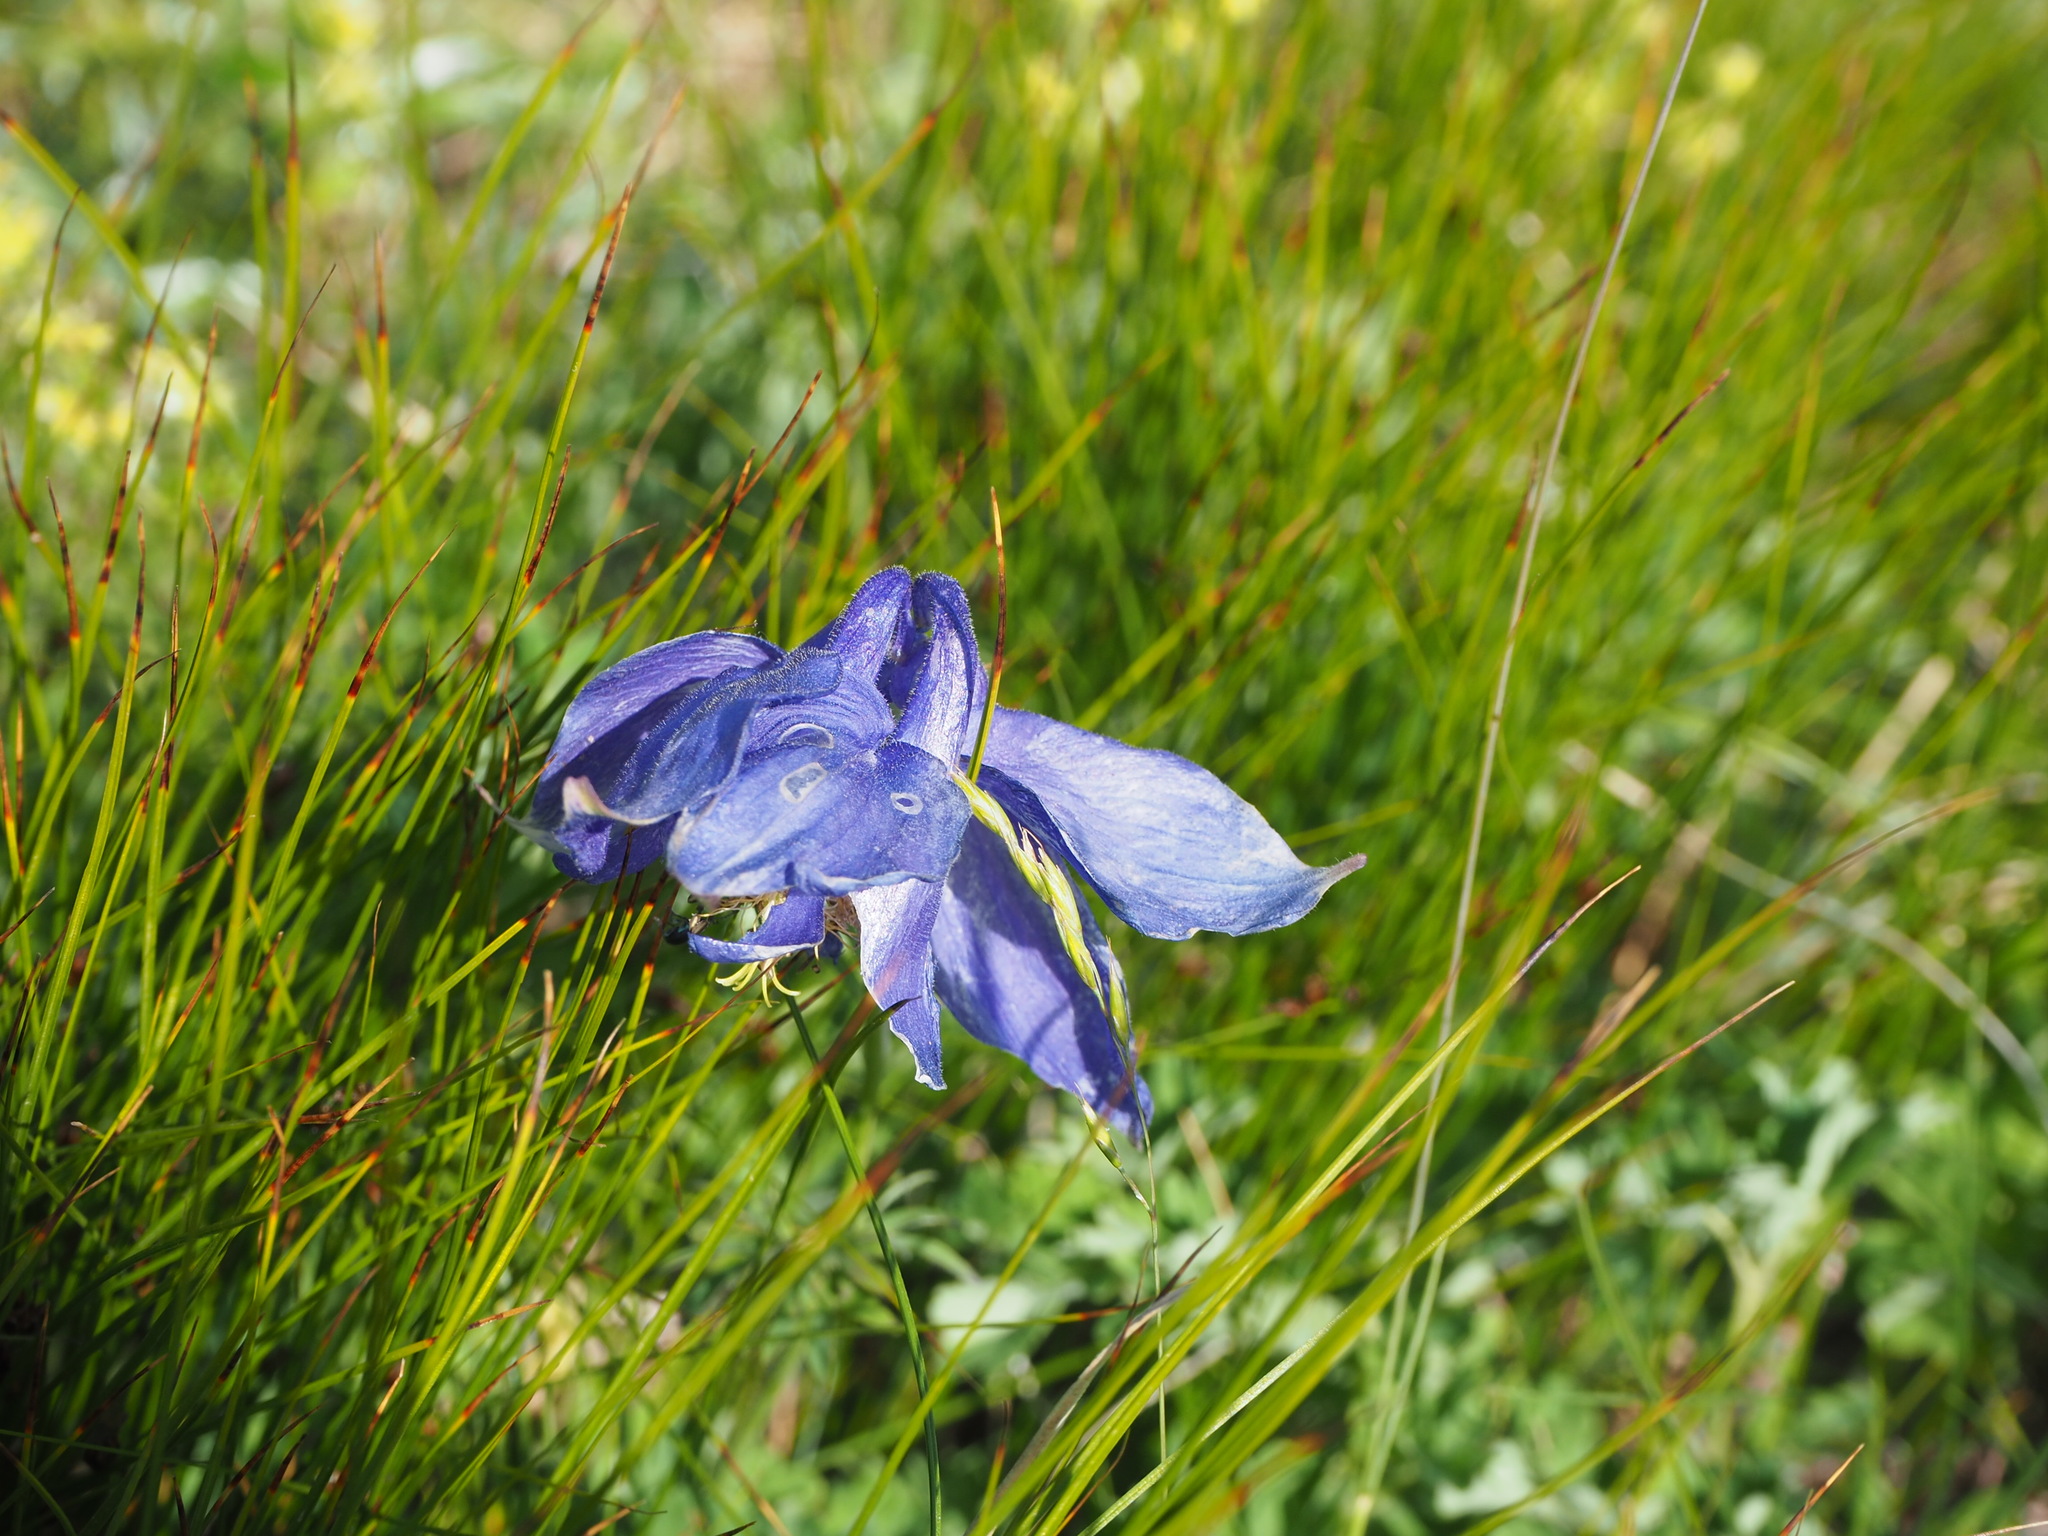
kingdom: Plantae
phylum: Tracheophyta
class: Magnoliopsida
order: Ranunculales
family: Ranunculaceae
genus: Aquilegia
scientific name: Aquilegia lucensis
